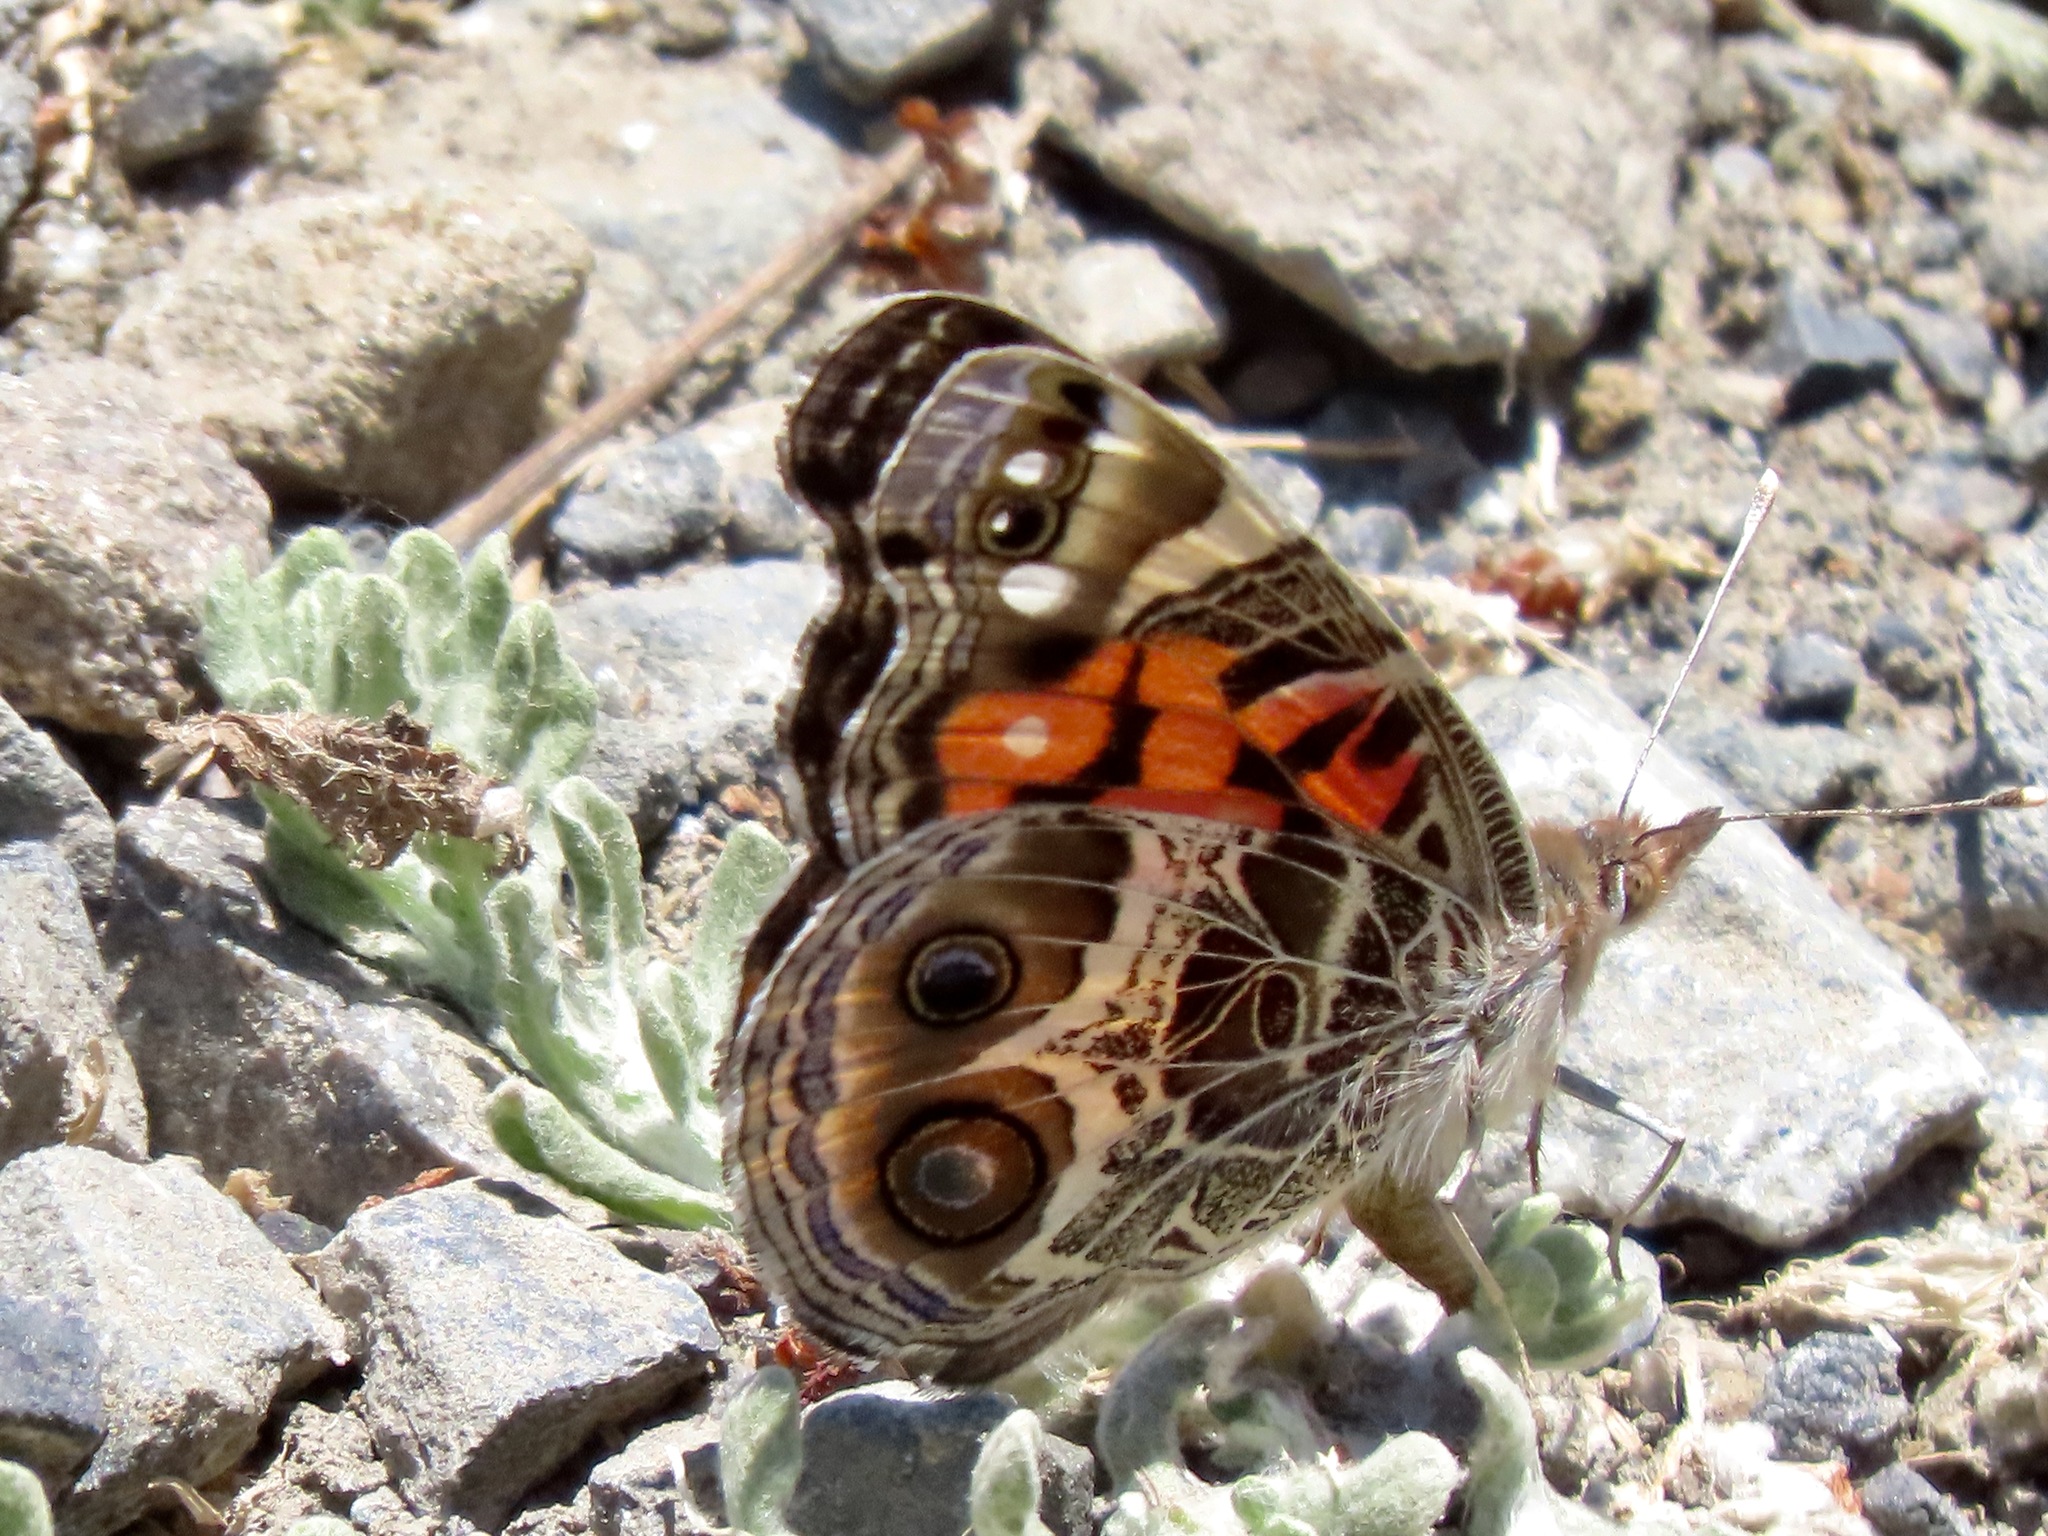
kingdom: Animalia
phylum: Arthropoda
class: Insecta
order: Lepidoptera
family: Nymphalidae
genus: Vanessa
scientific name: Vanessa virginiensis
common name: American lady
